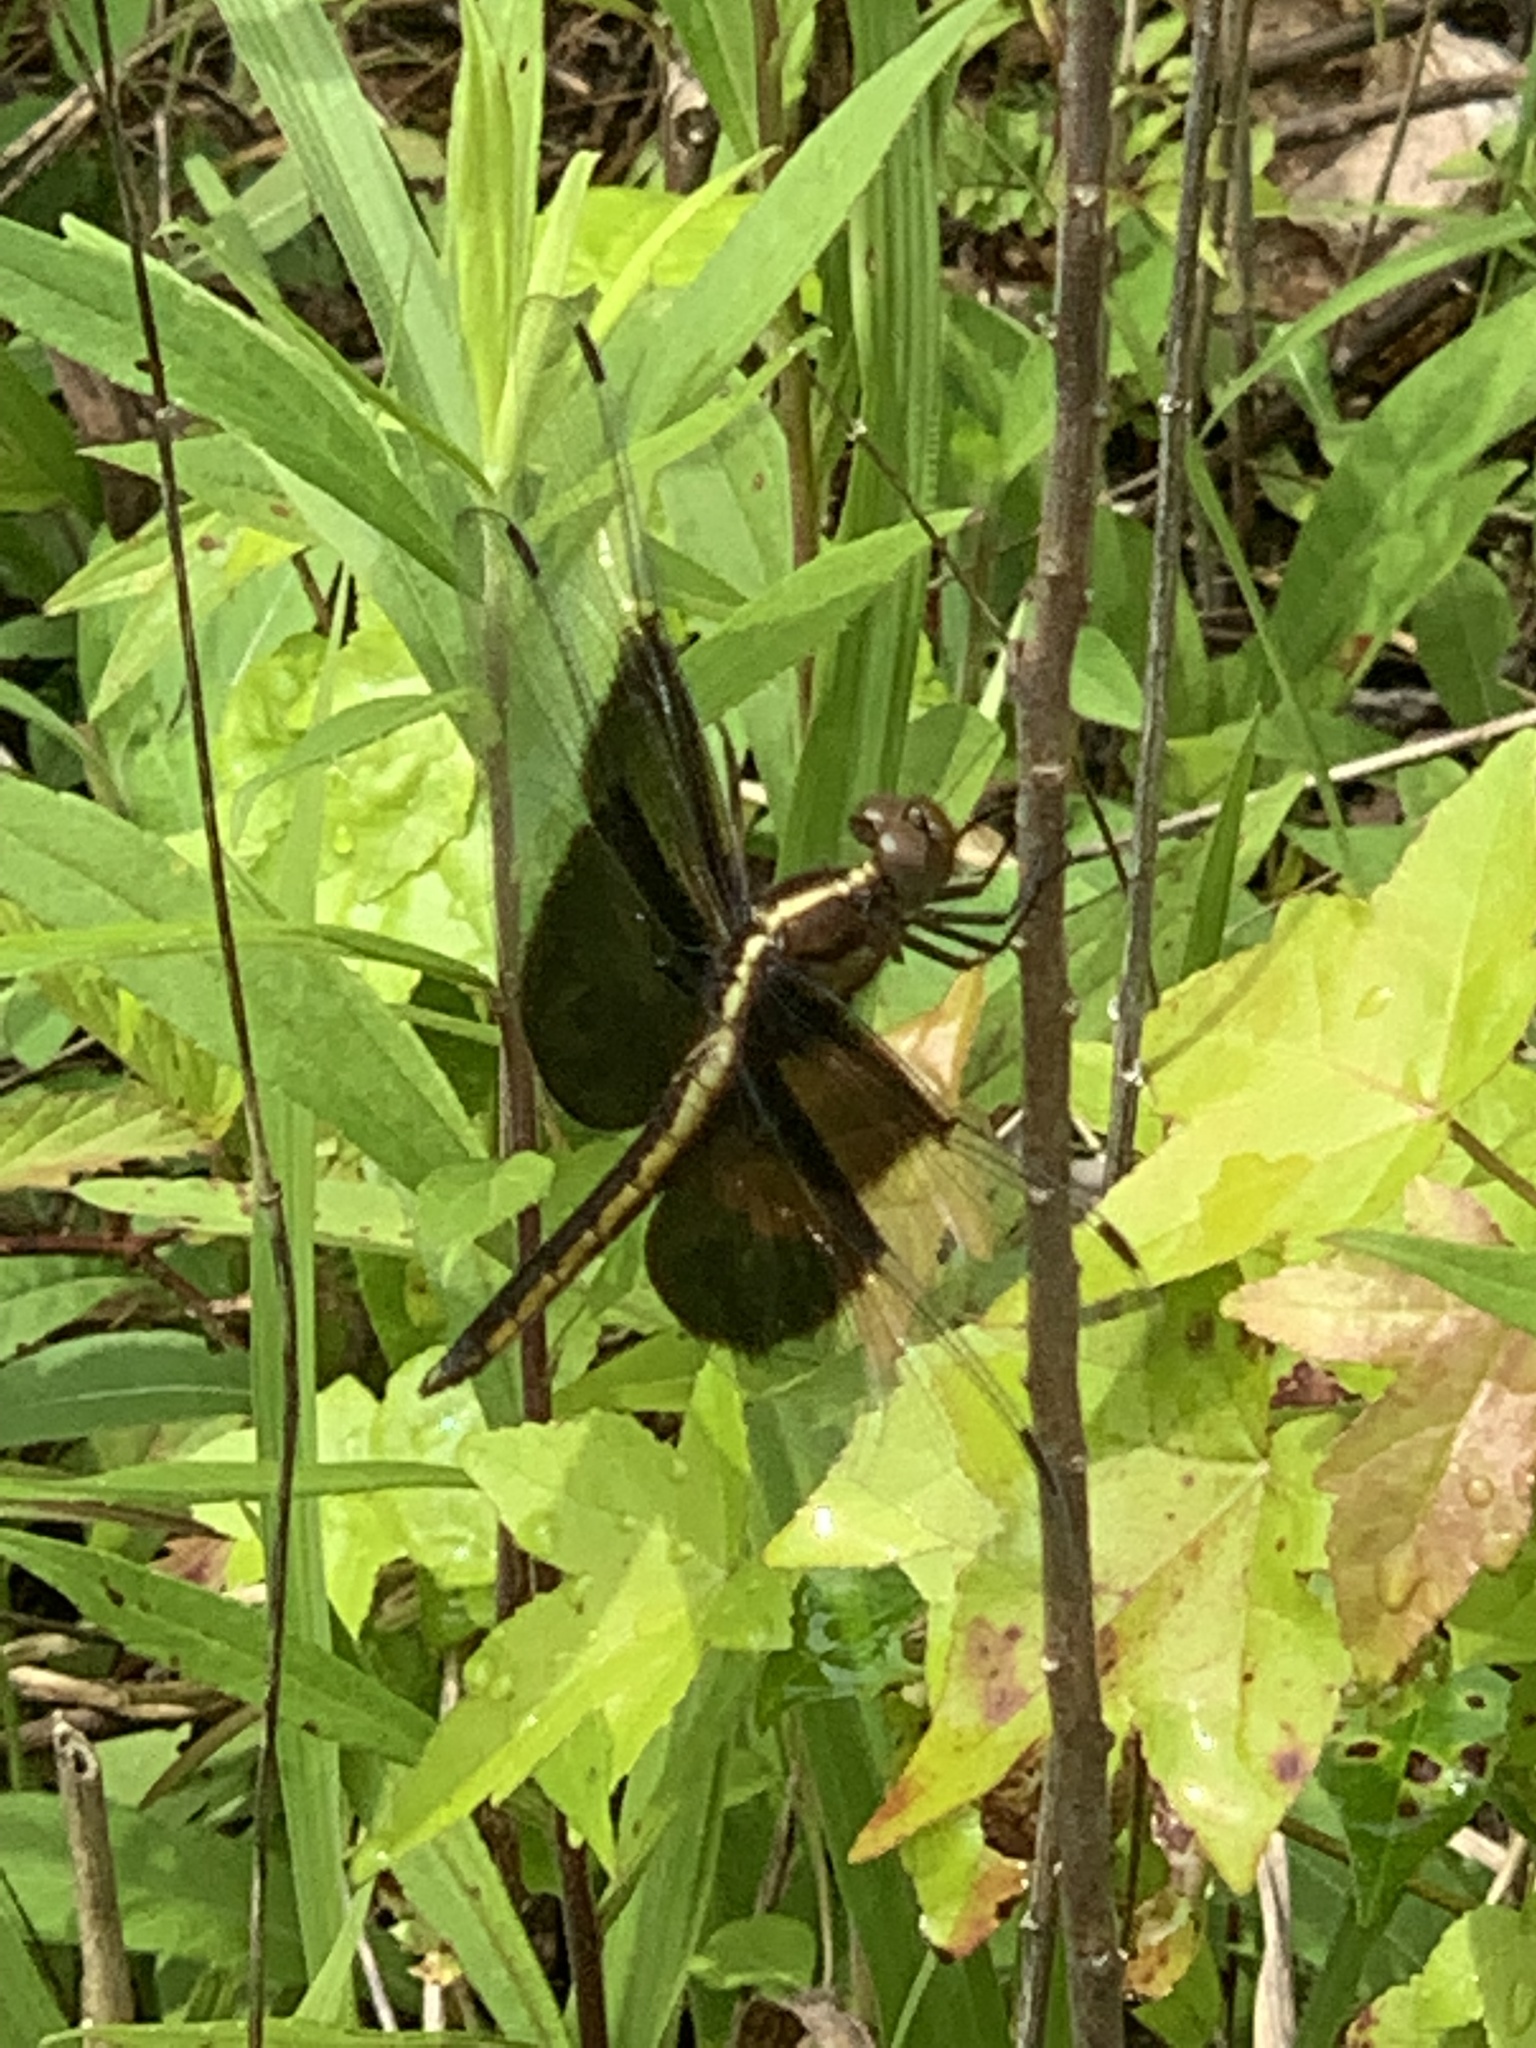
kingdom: Animalia
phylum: Arthropoda
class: Insecta
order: Odonata
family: Libellulidae
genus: Libellula
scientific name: Libellula luctuosa
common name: Widow skimmer
